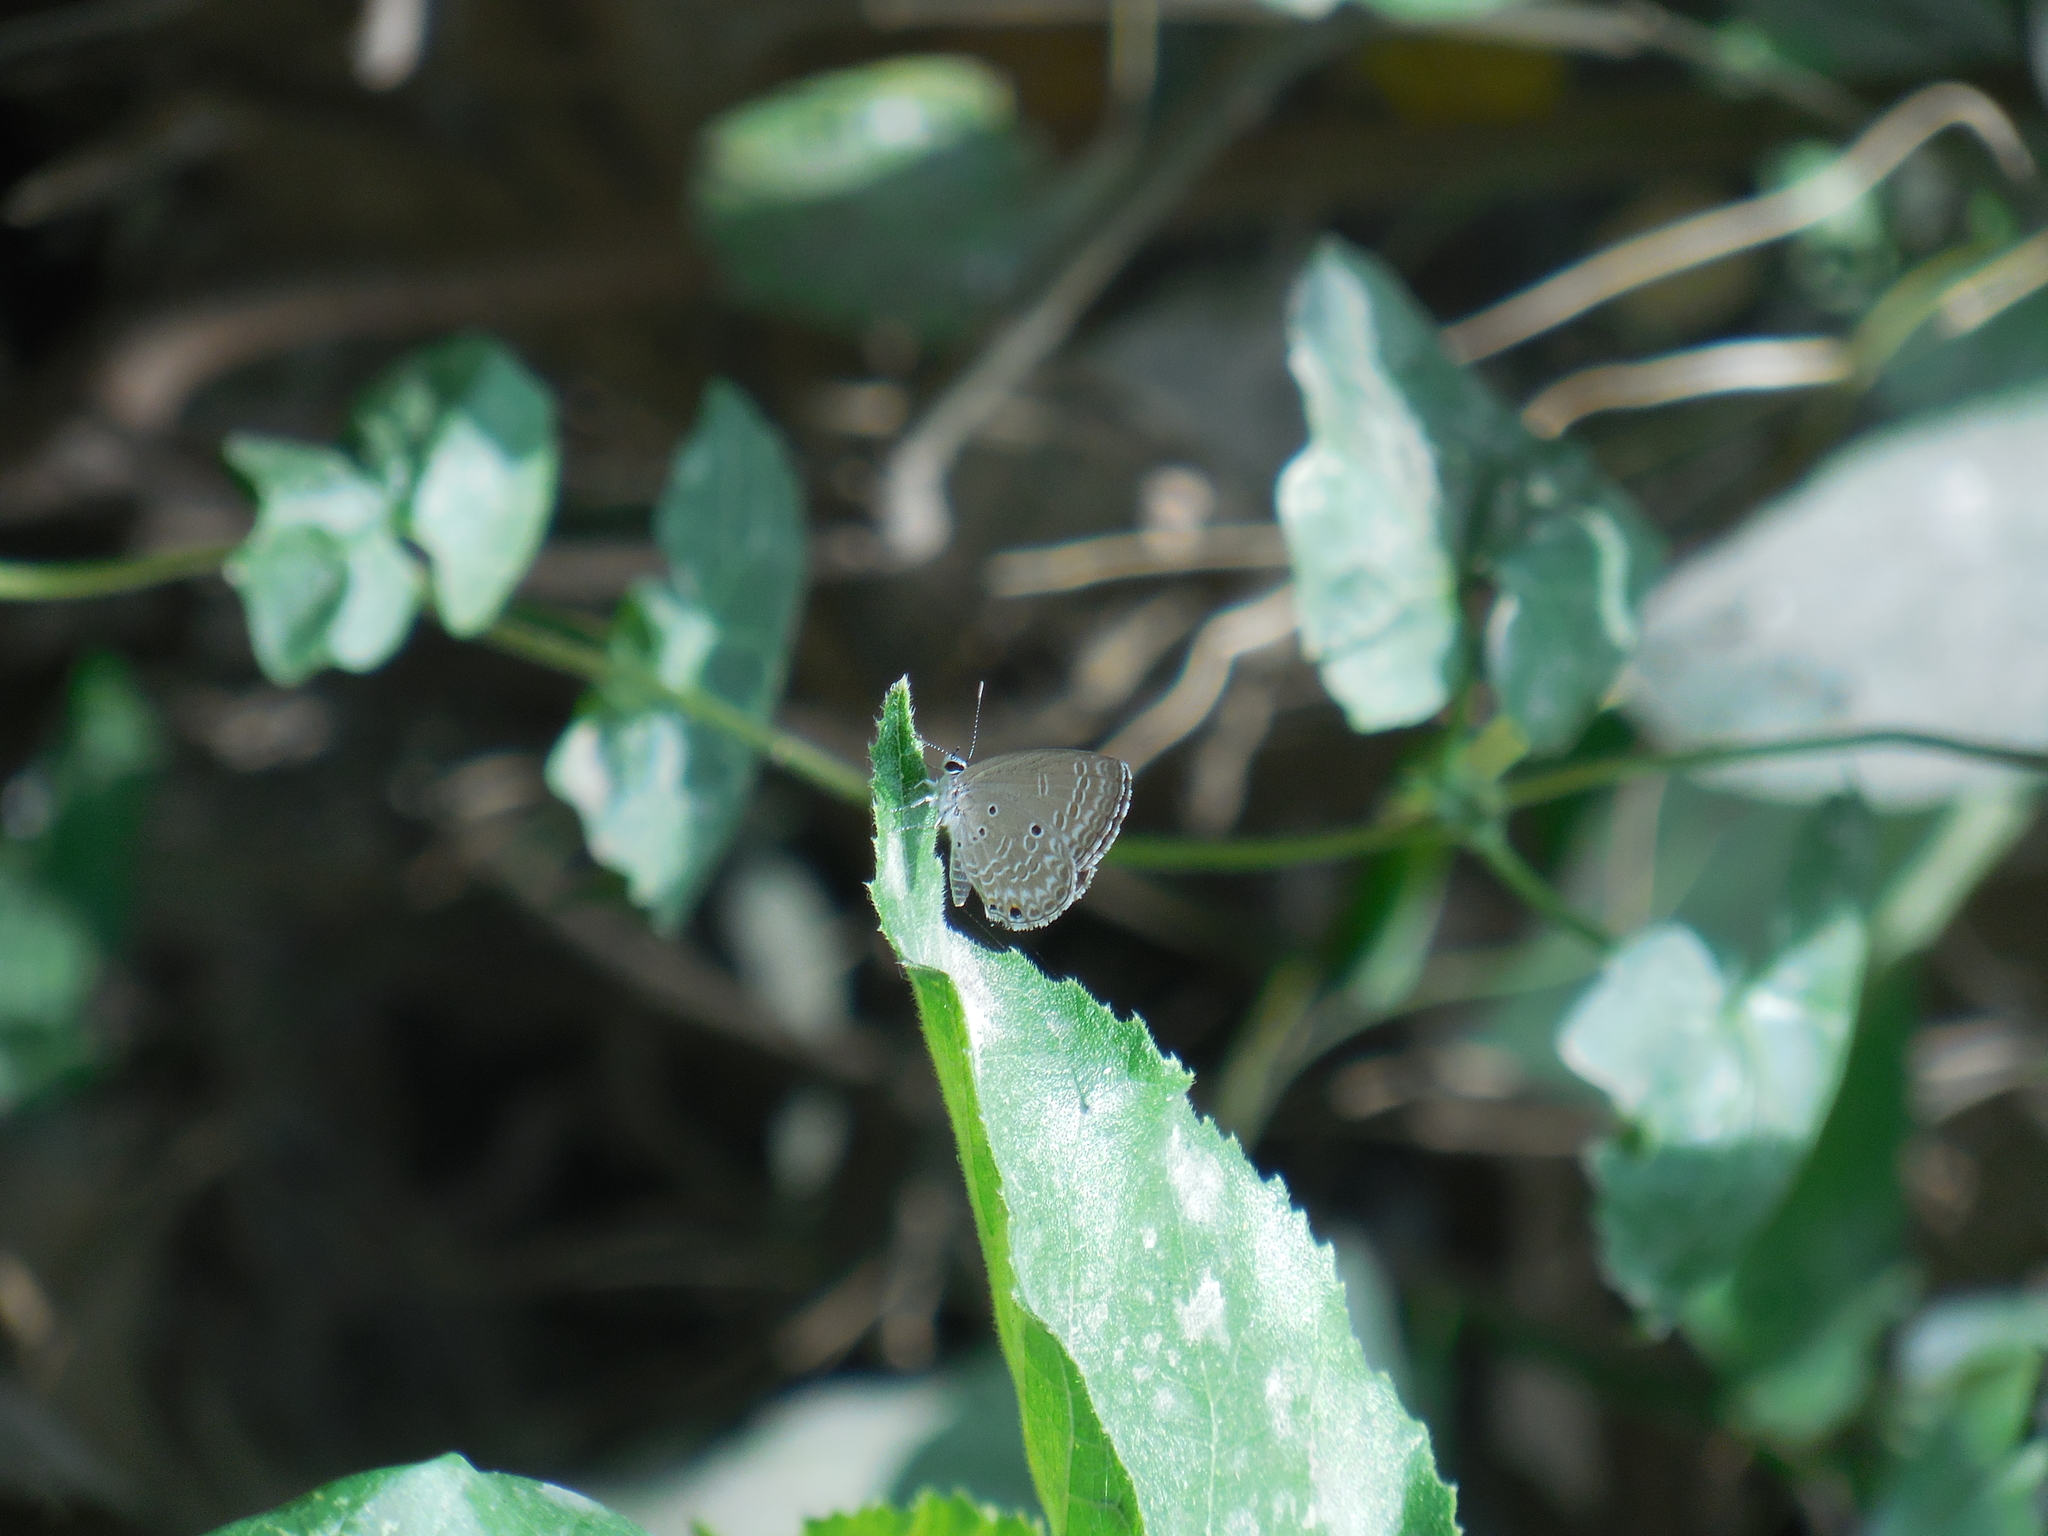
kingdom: Animalia
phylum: Arthropoda
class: Insecta
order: Lepidoptera
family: Lycaenidae
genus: Luthrodes
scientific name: Luthrodes pandava
